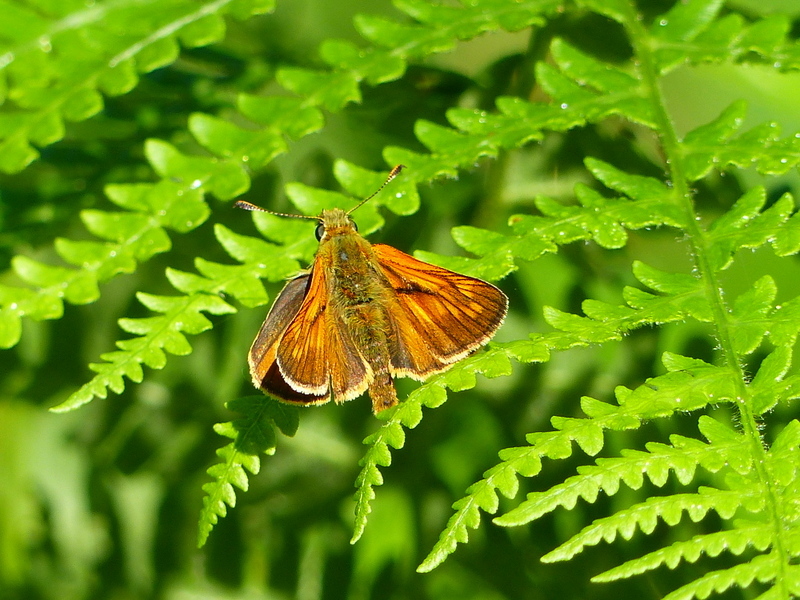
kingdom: Animalia
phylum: Arthropoda
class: Insecta
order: Lepidoptera
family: Hesperiidae
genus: Ochlodes
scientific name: Ochlodes venata
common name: Large skipper
